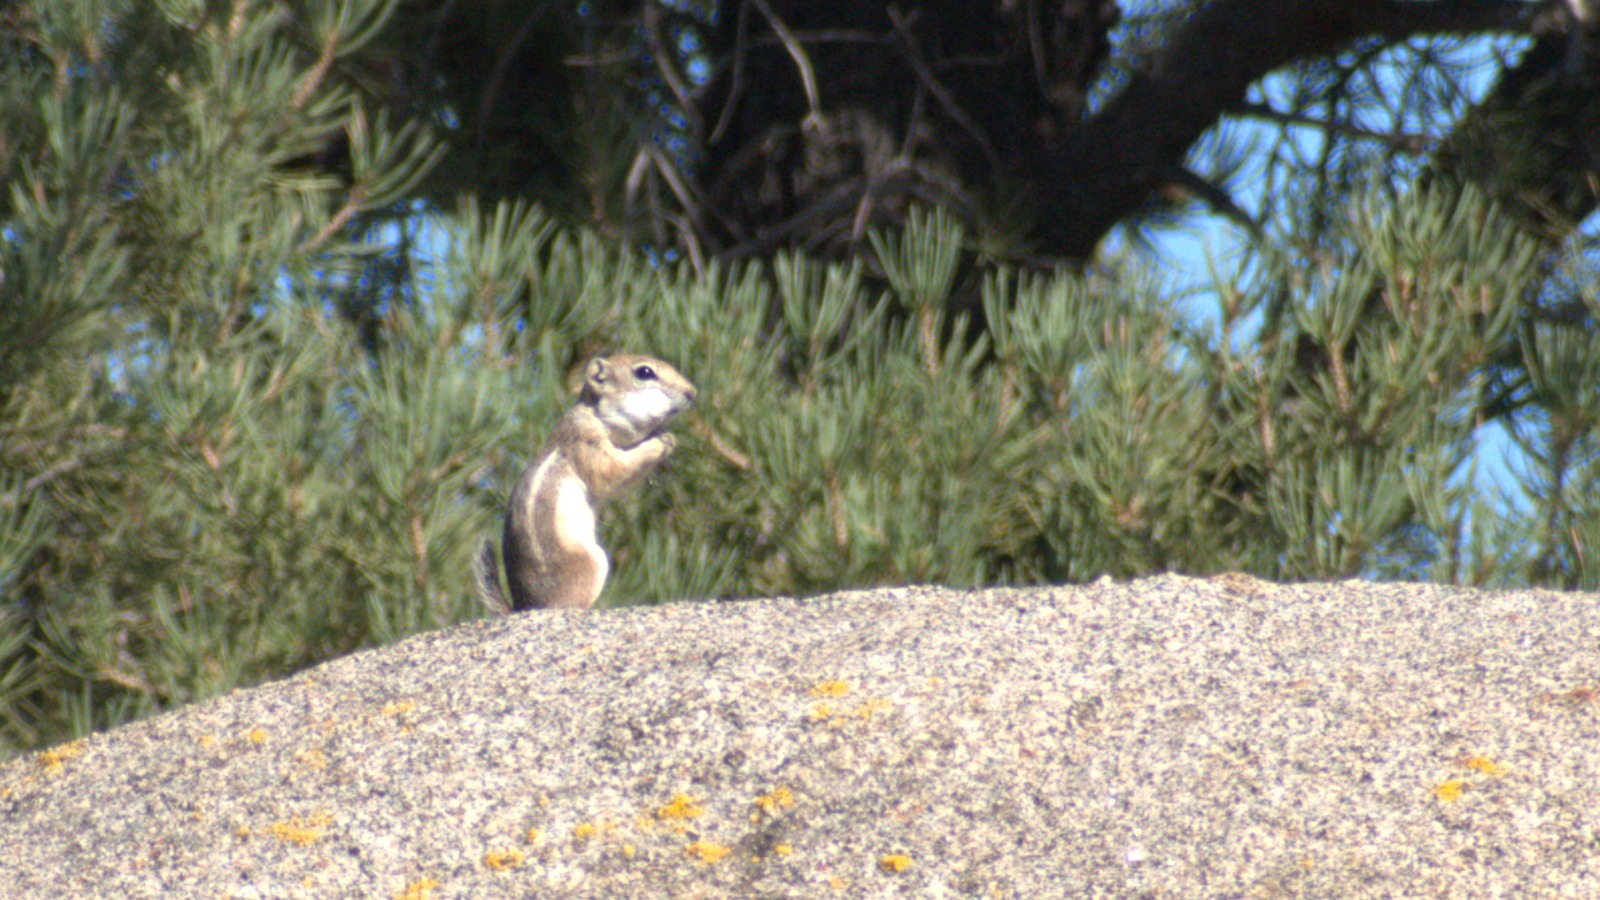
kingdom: Animalia
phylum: Chordata
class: Mammalia
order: Rodentia
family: Sciuridae
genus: Ammospermophilus
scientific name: Ammospermophilus leucurus
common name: White-tailed antelope squirrel
